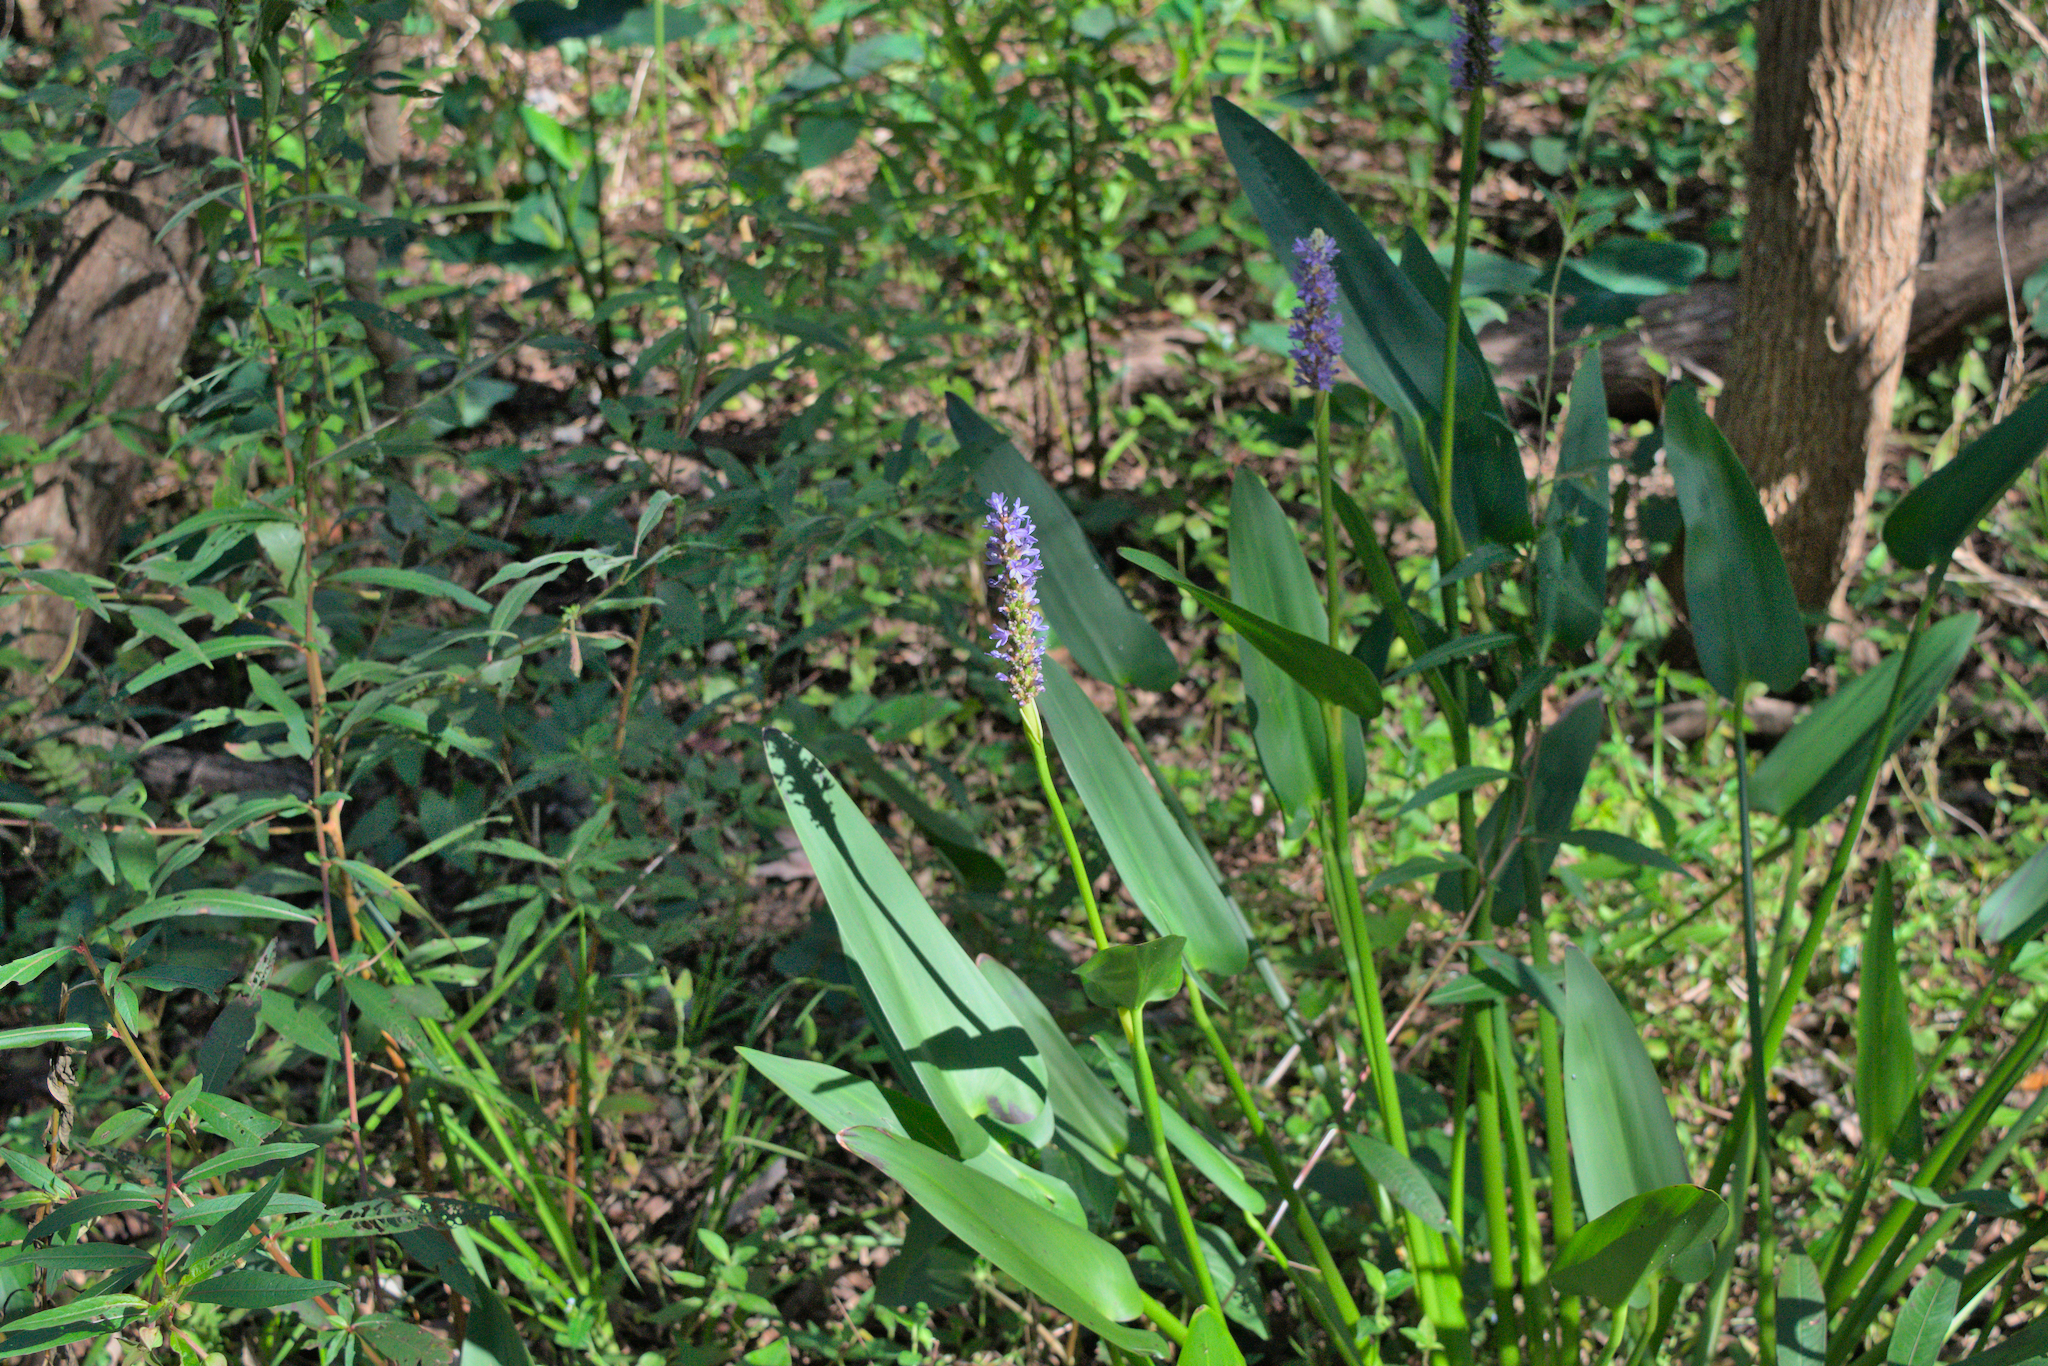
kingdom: Plantae
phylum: Tracheophyta
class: Liliopsida
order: Commelinales
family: Pontederiaceae
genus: Pontederia
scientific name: Pontederia cordata
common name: Pickerelweed
